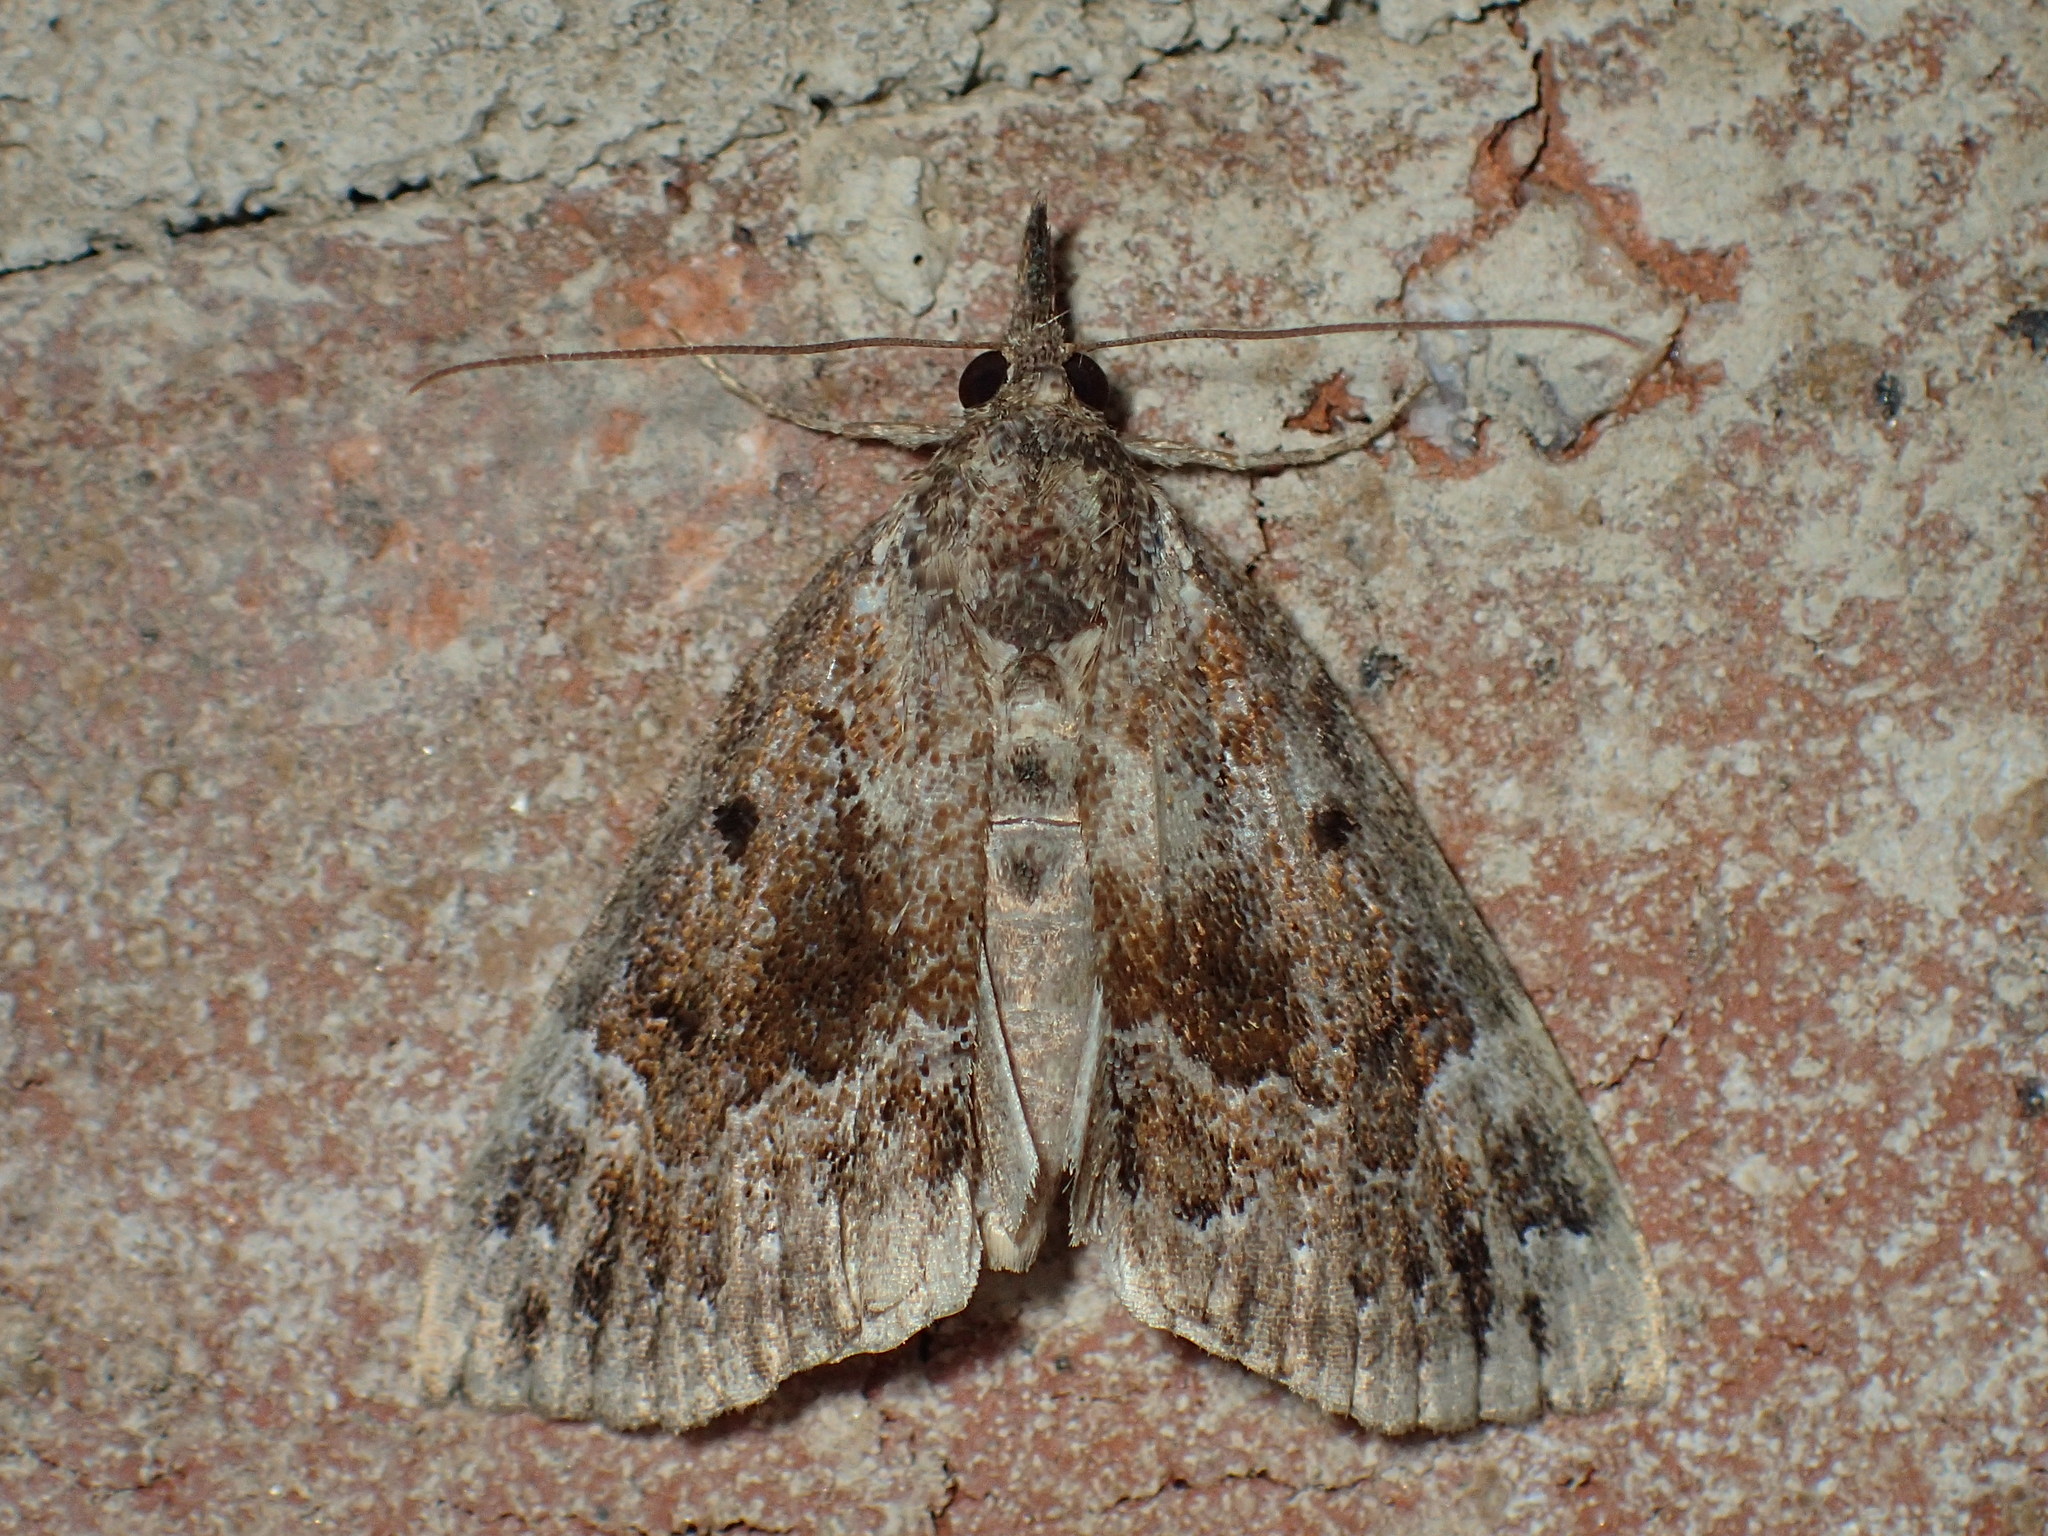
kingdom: Animalia
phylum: Arthropoda
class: Insecta
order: Lepidoptera
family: Erebidae
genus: Hypena
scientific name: Hypena palparia
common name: Mottled bomolocha moth
